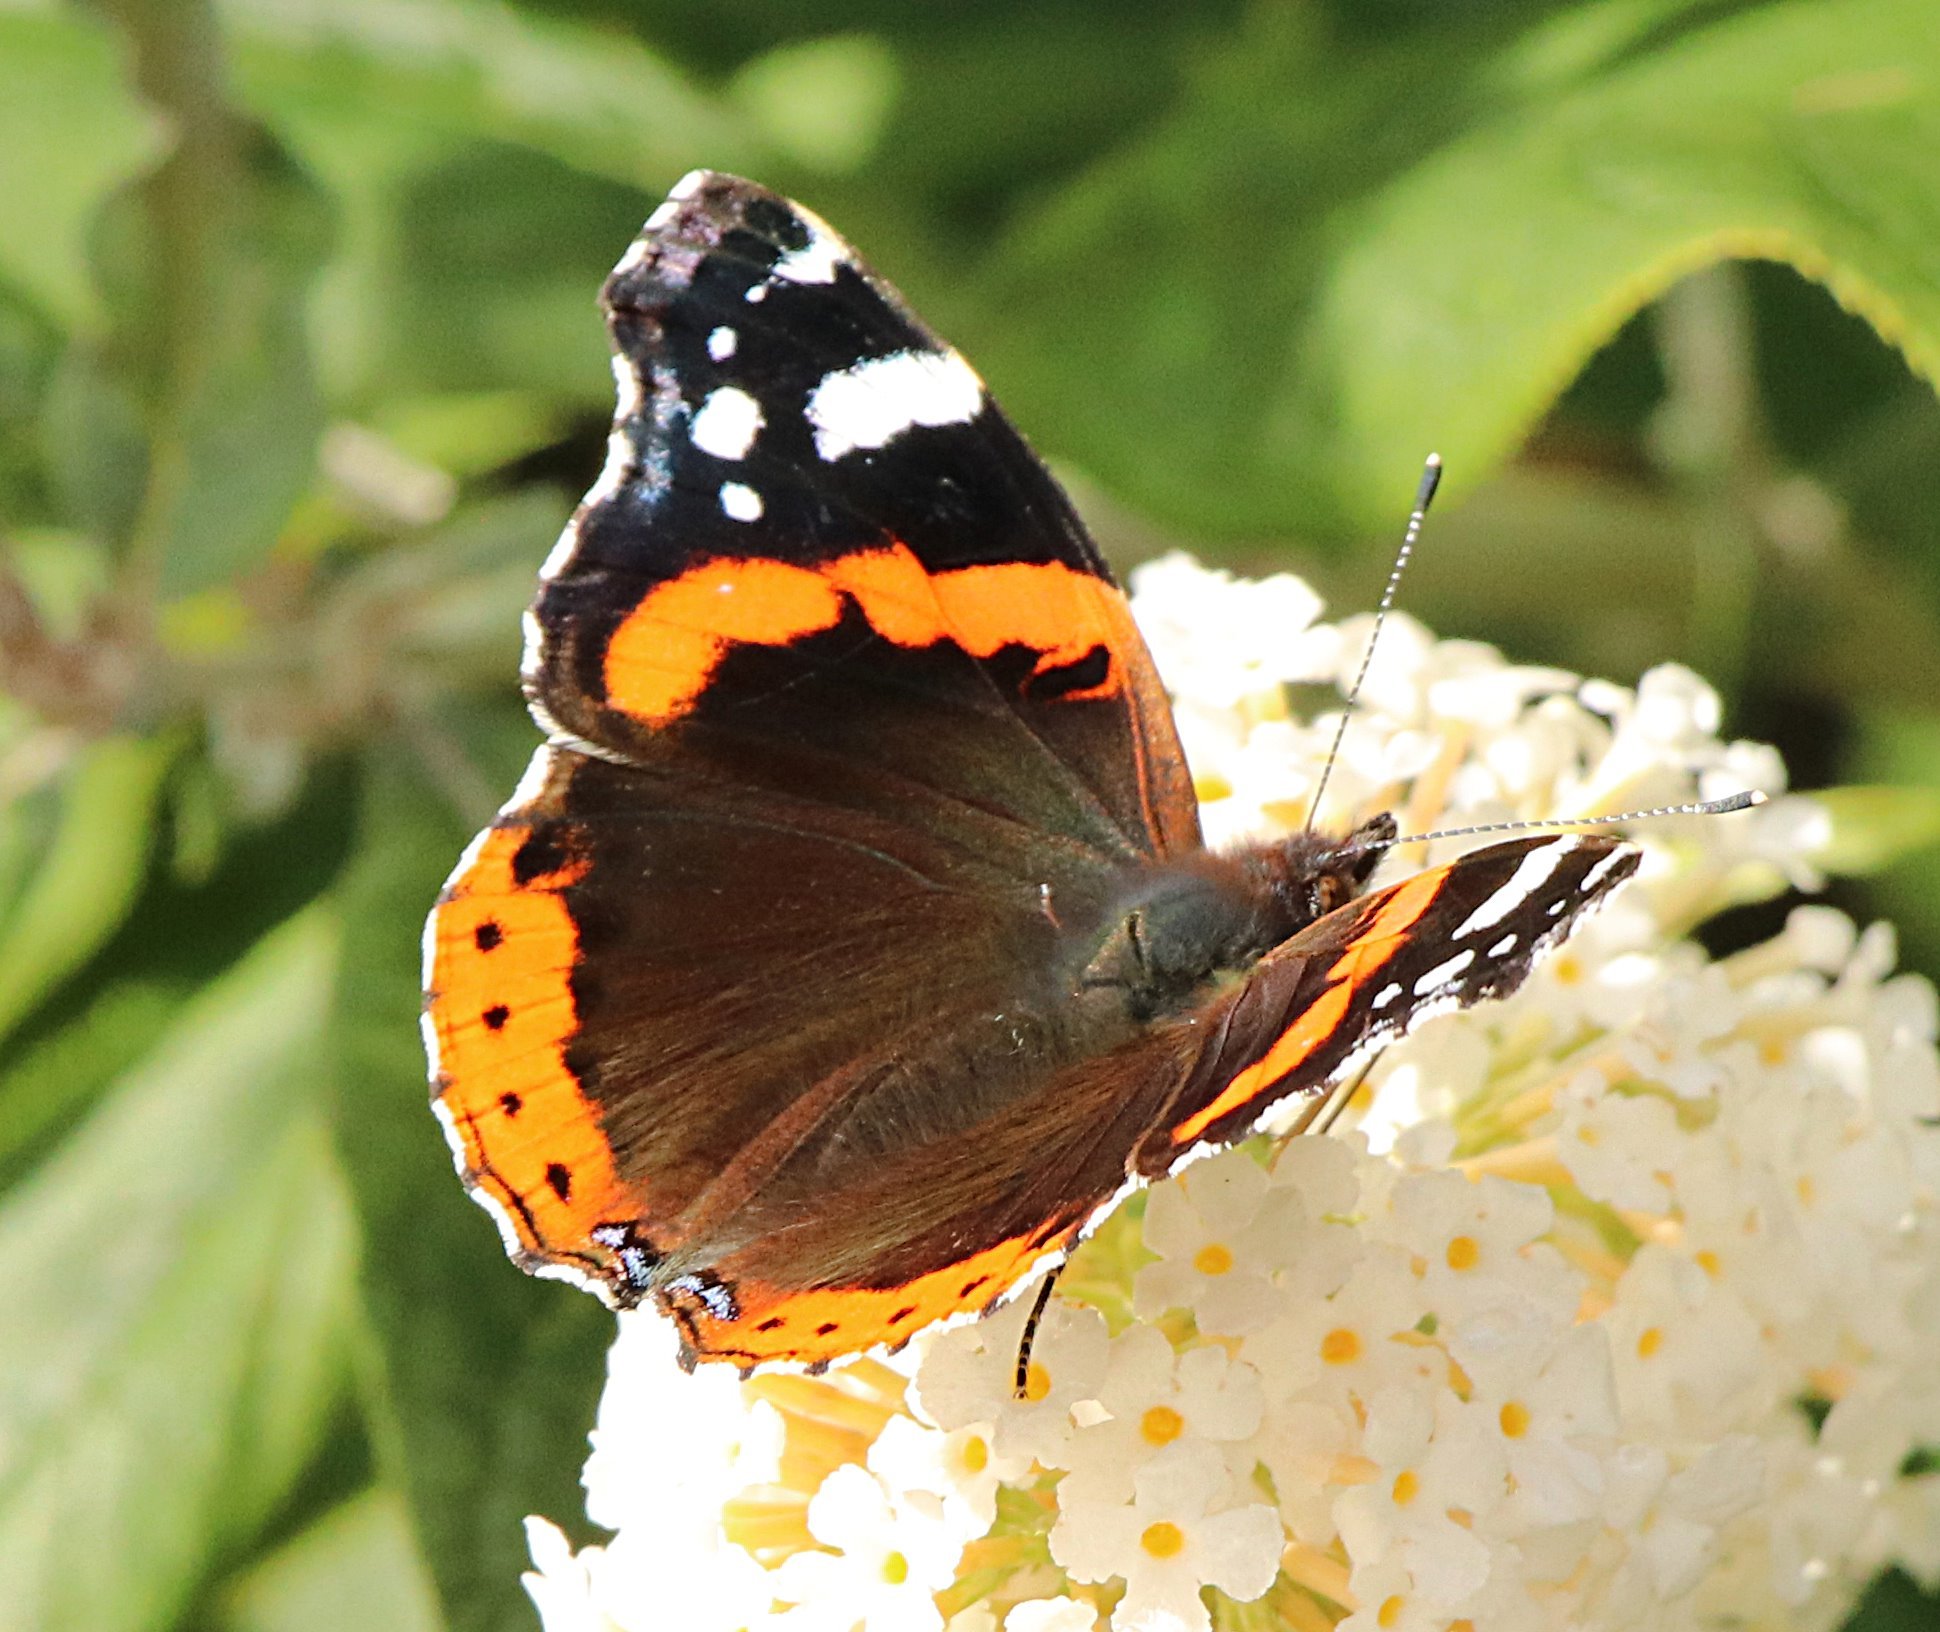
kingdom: Animalia
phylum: Arthropoda
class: Insecta
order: Lepidoptera
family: Nymphalidae
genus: Vanessa
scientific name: Vanessa atalanta
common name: Red admiral
